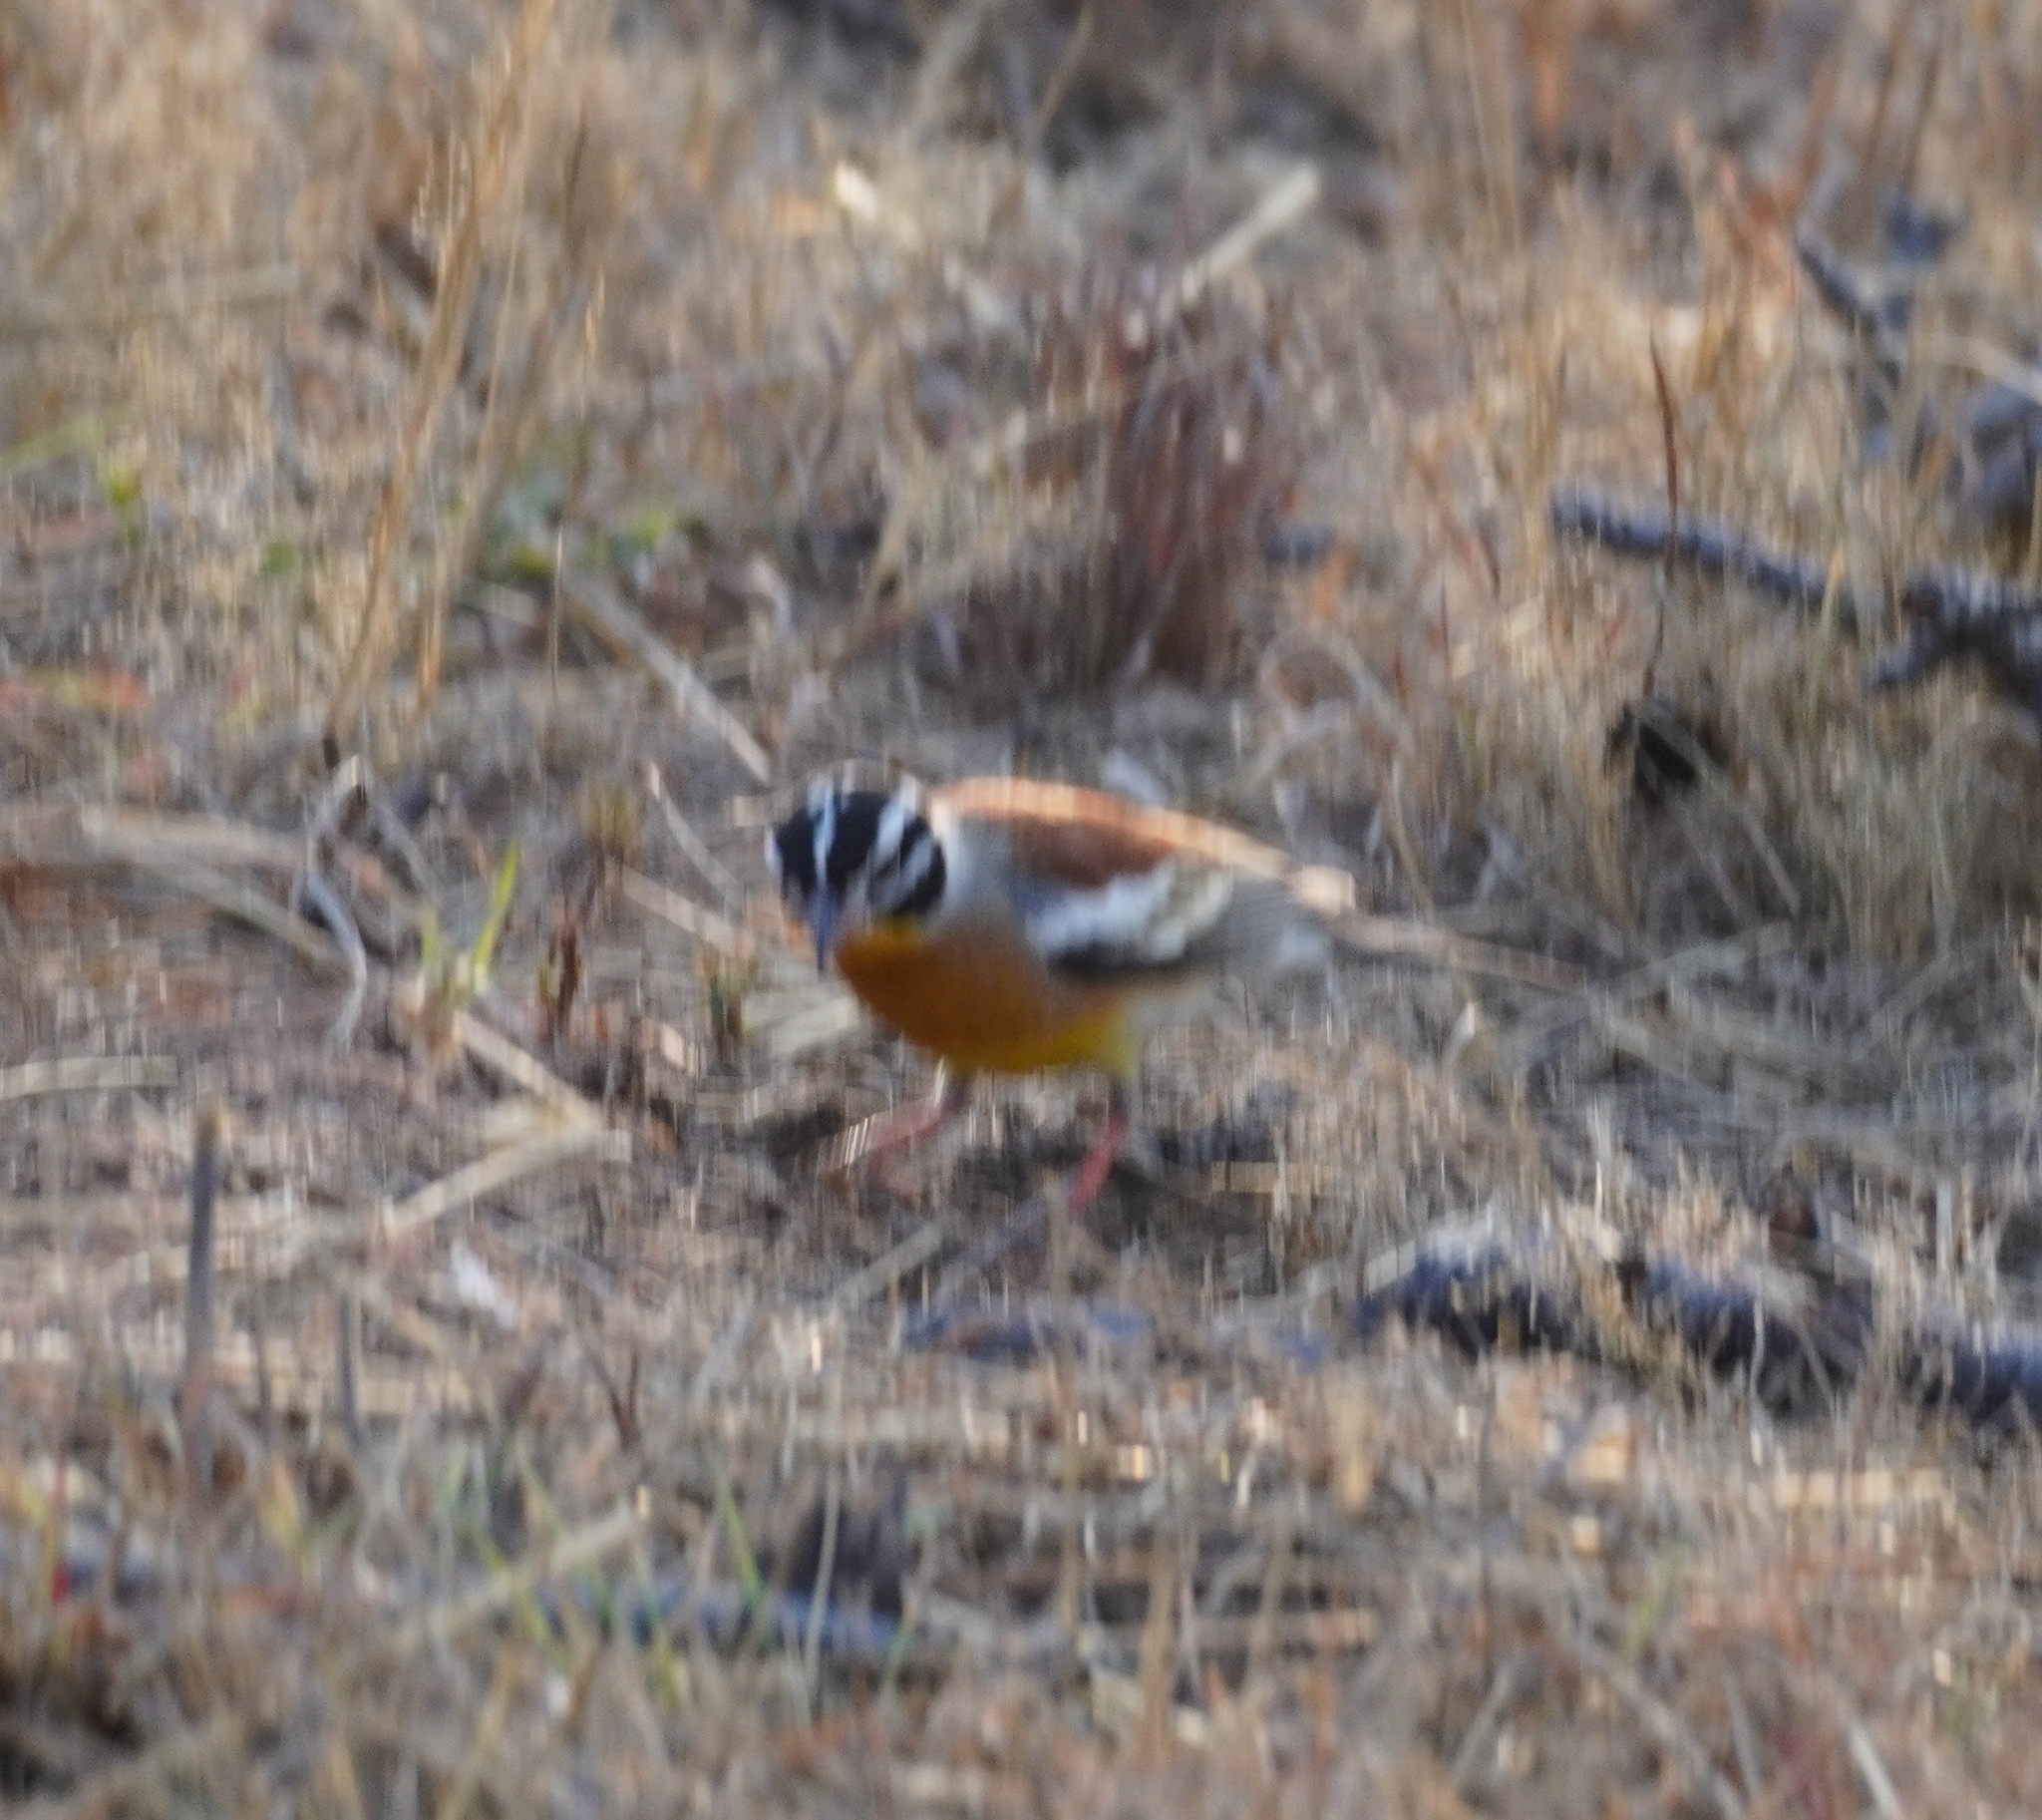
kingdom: Animalia
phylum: Chordata
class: Aves
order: Passeriformes
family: Emberizidae
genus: Emberiza
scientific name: Emberiza flaviventris
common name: Golden-breasted bunting
